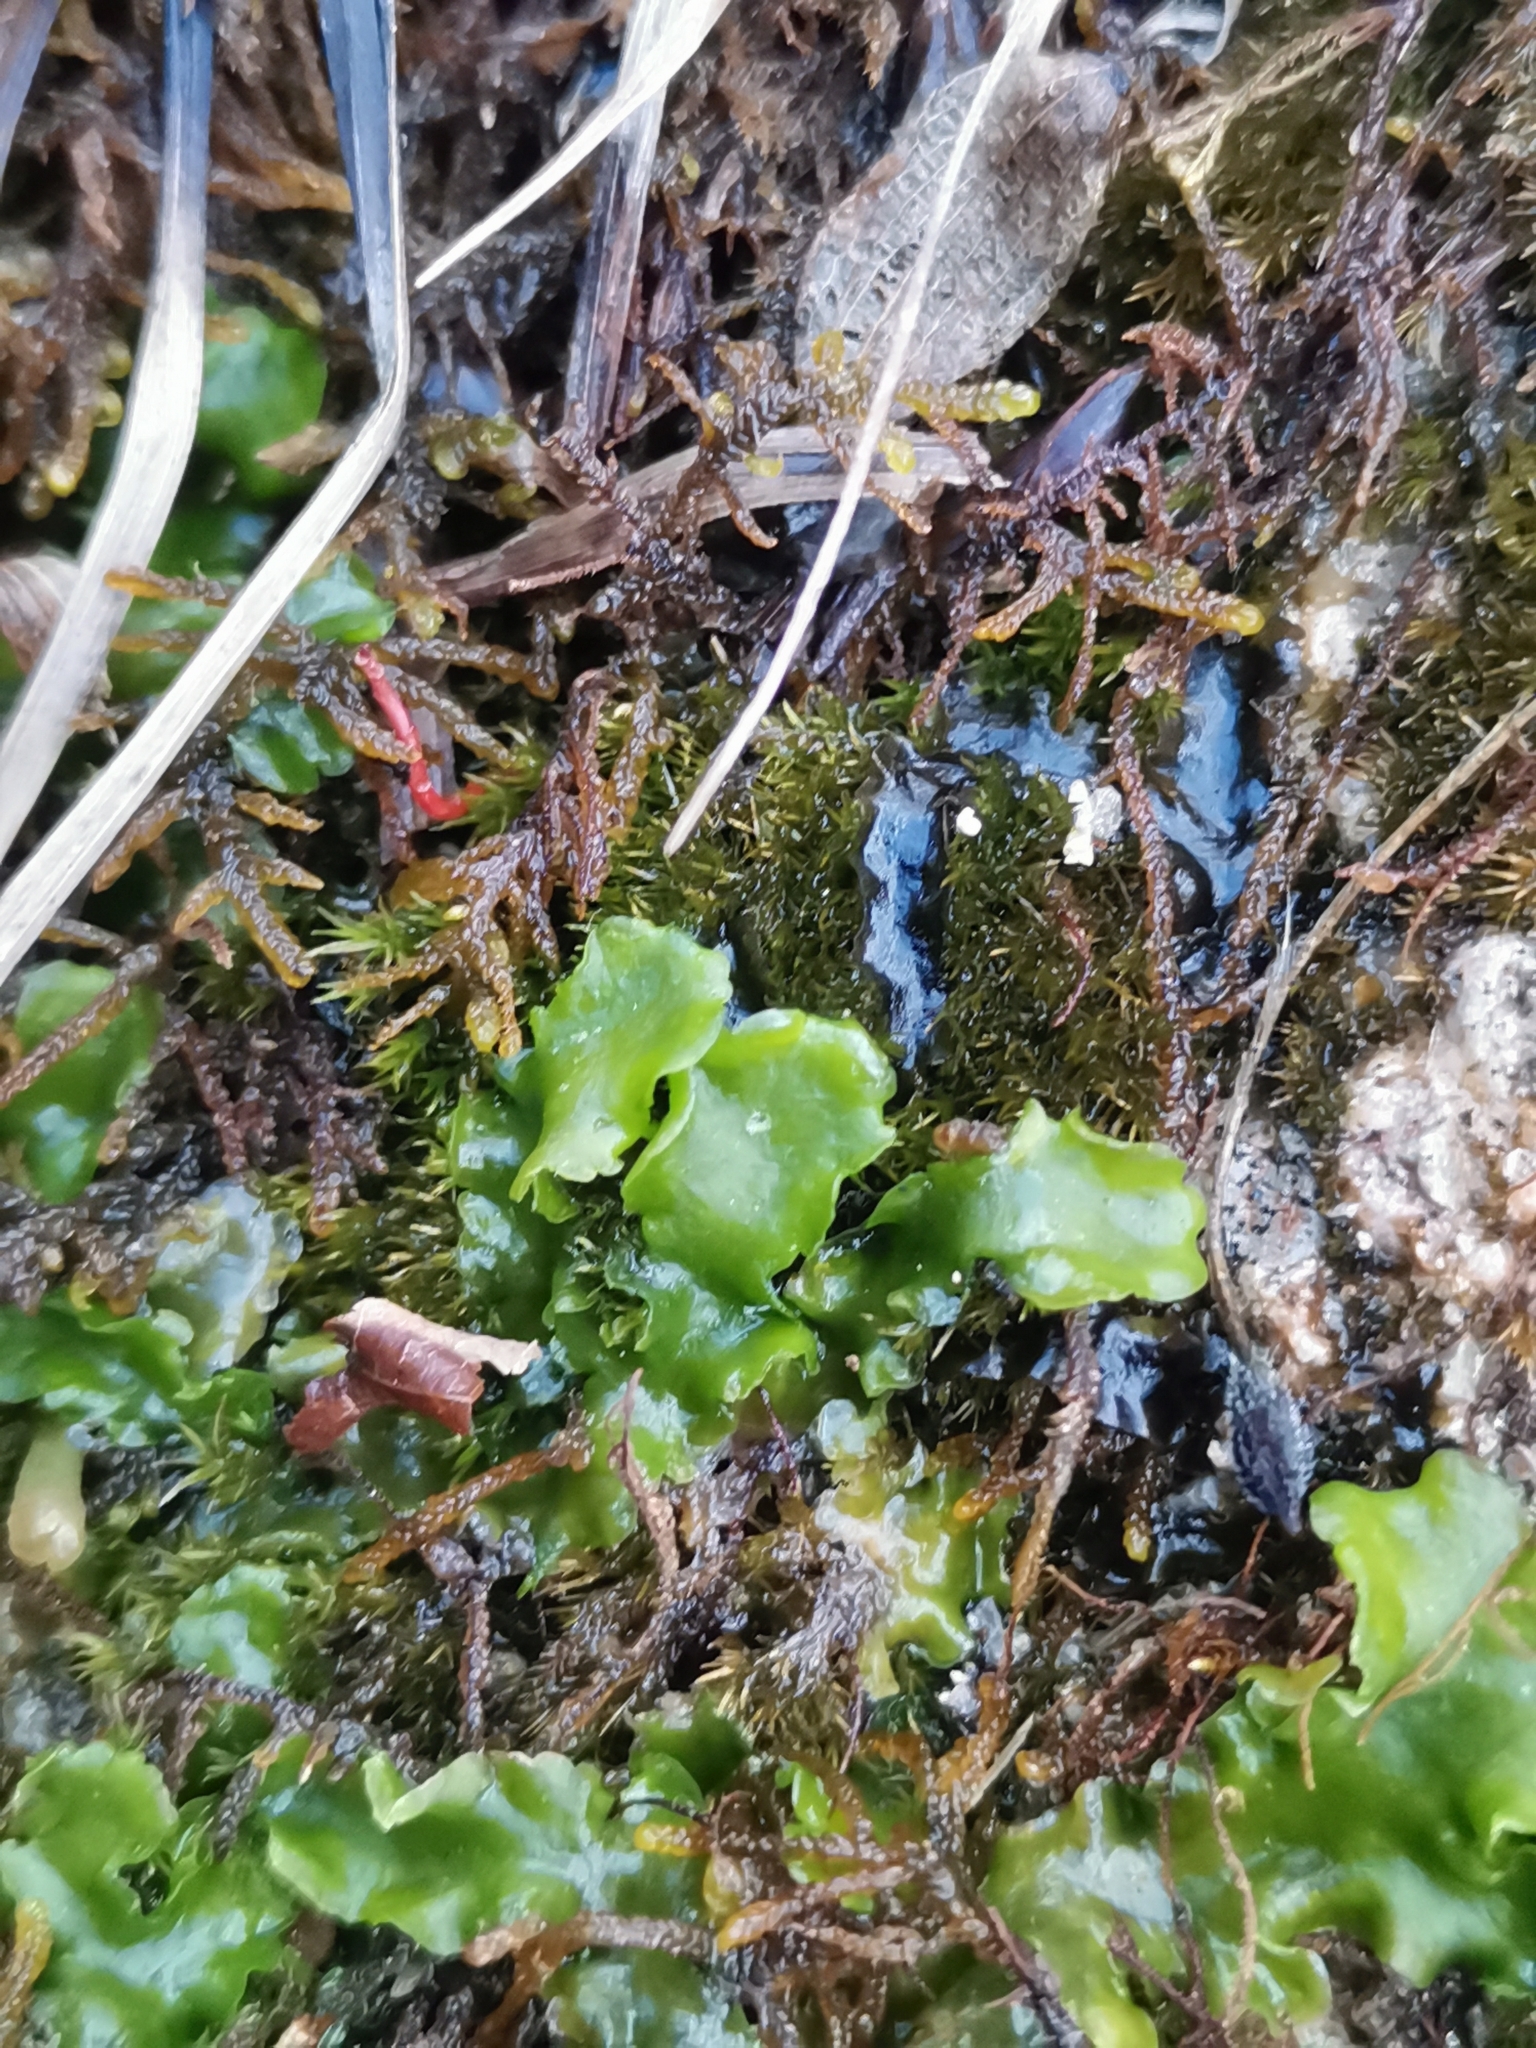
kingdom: Plantae
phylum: Marchantiophyta
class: Jungermanniopsida
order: Metzgeriales
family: Aneuraceae
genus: Aneura
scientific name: Aneura pinguis
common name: Common greasewort
